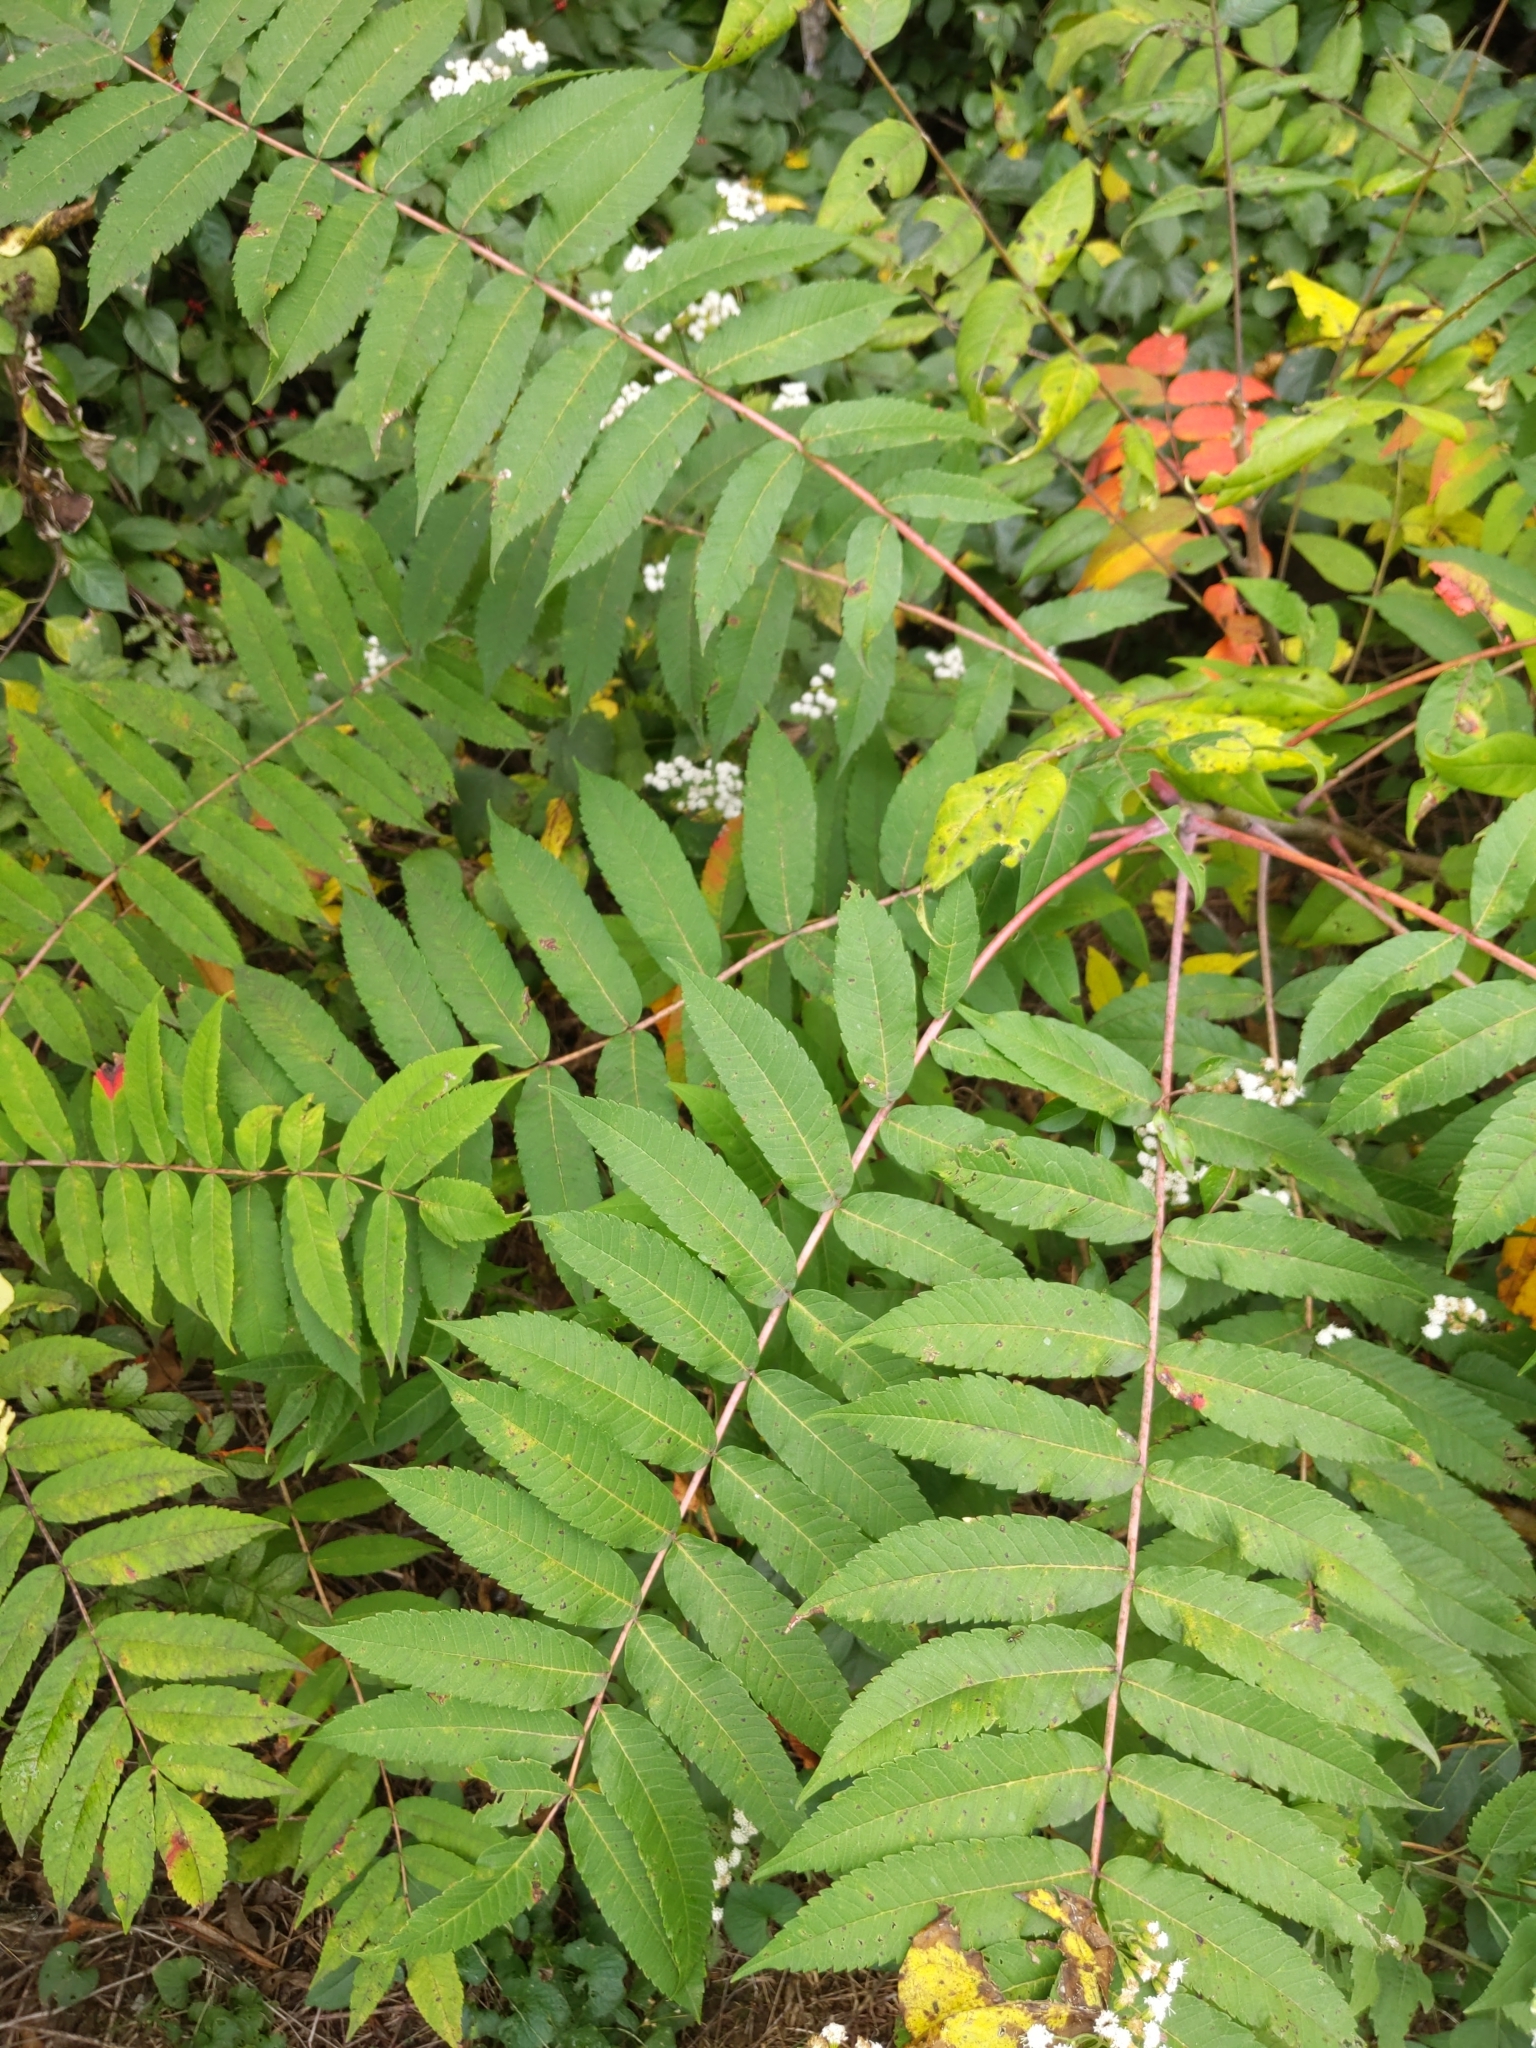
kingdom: Plantae
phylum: Tracheophyta
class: Magnoliopsida
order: Sapindales
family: Anacardiaceae
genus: Rhus
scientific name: Rhus glabra
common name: Scarlet sumac
